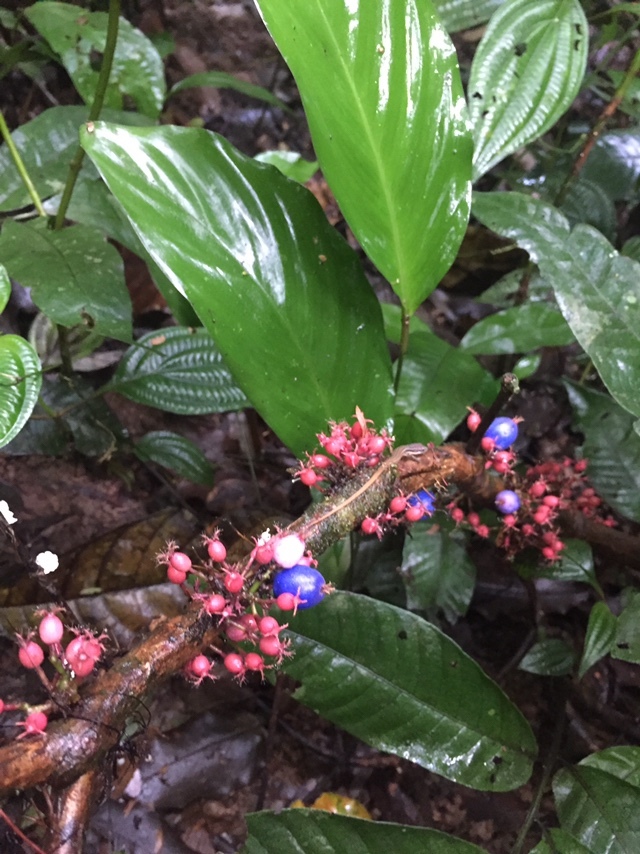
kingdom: Plantae
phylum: Tracheophyta
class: Magnoliopsida
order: Myrtales
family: Melastomataceae
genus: Miconia
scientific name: Miconia trichocalyx
